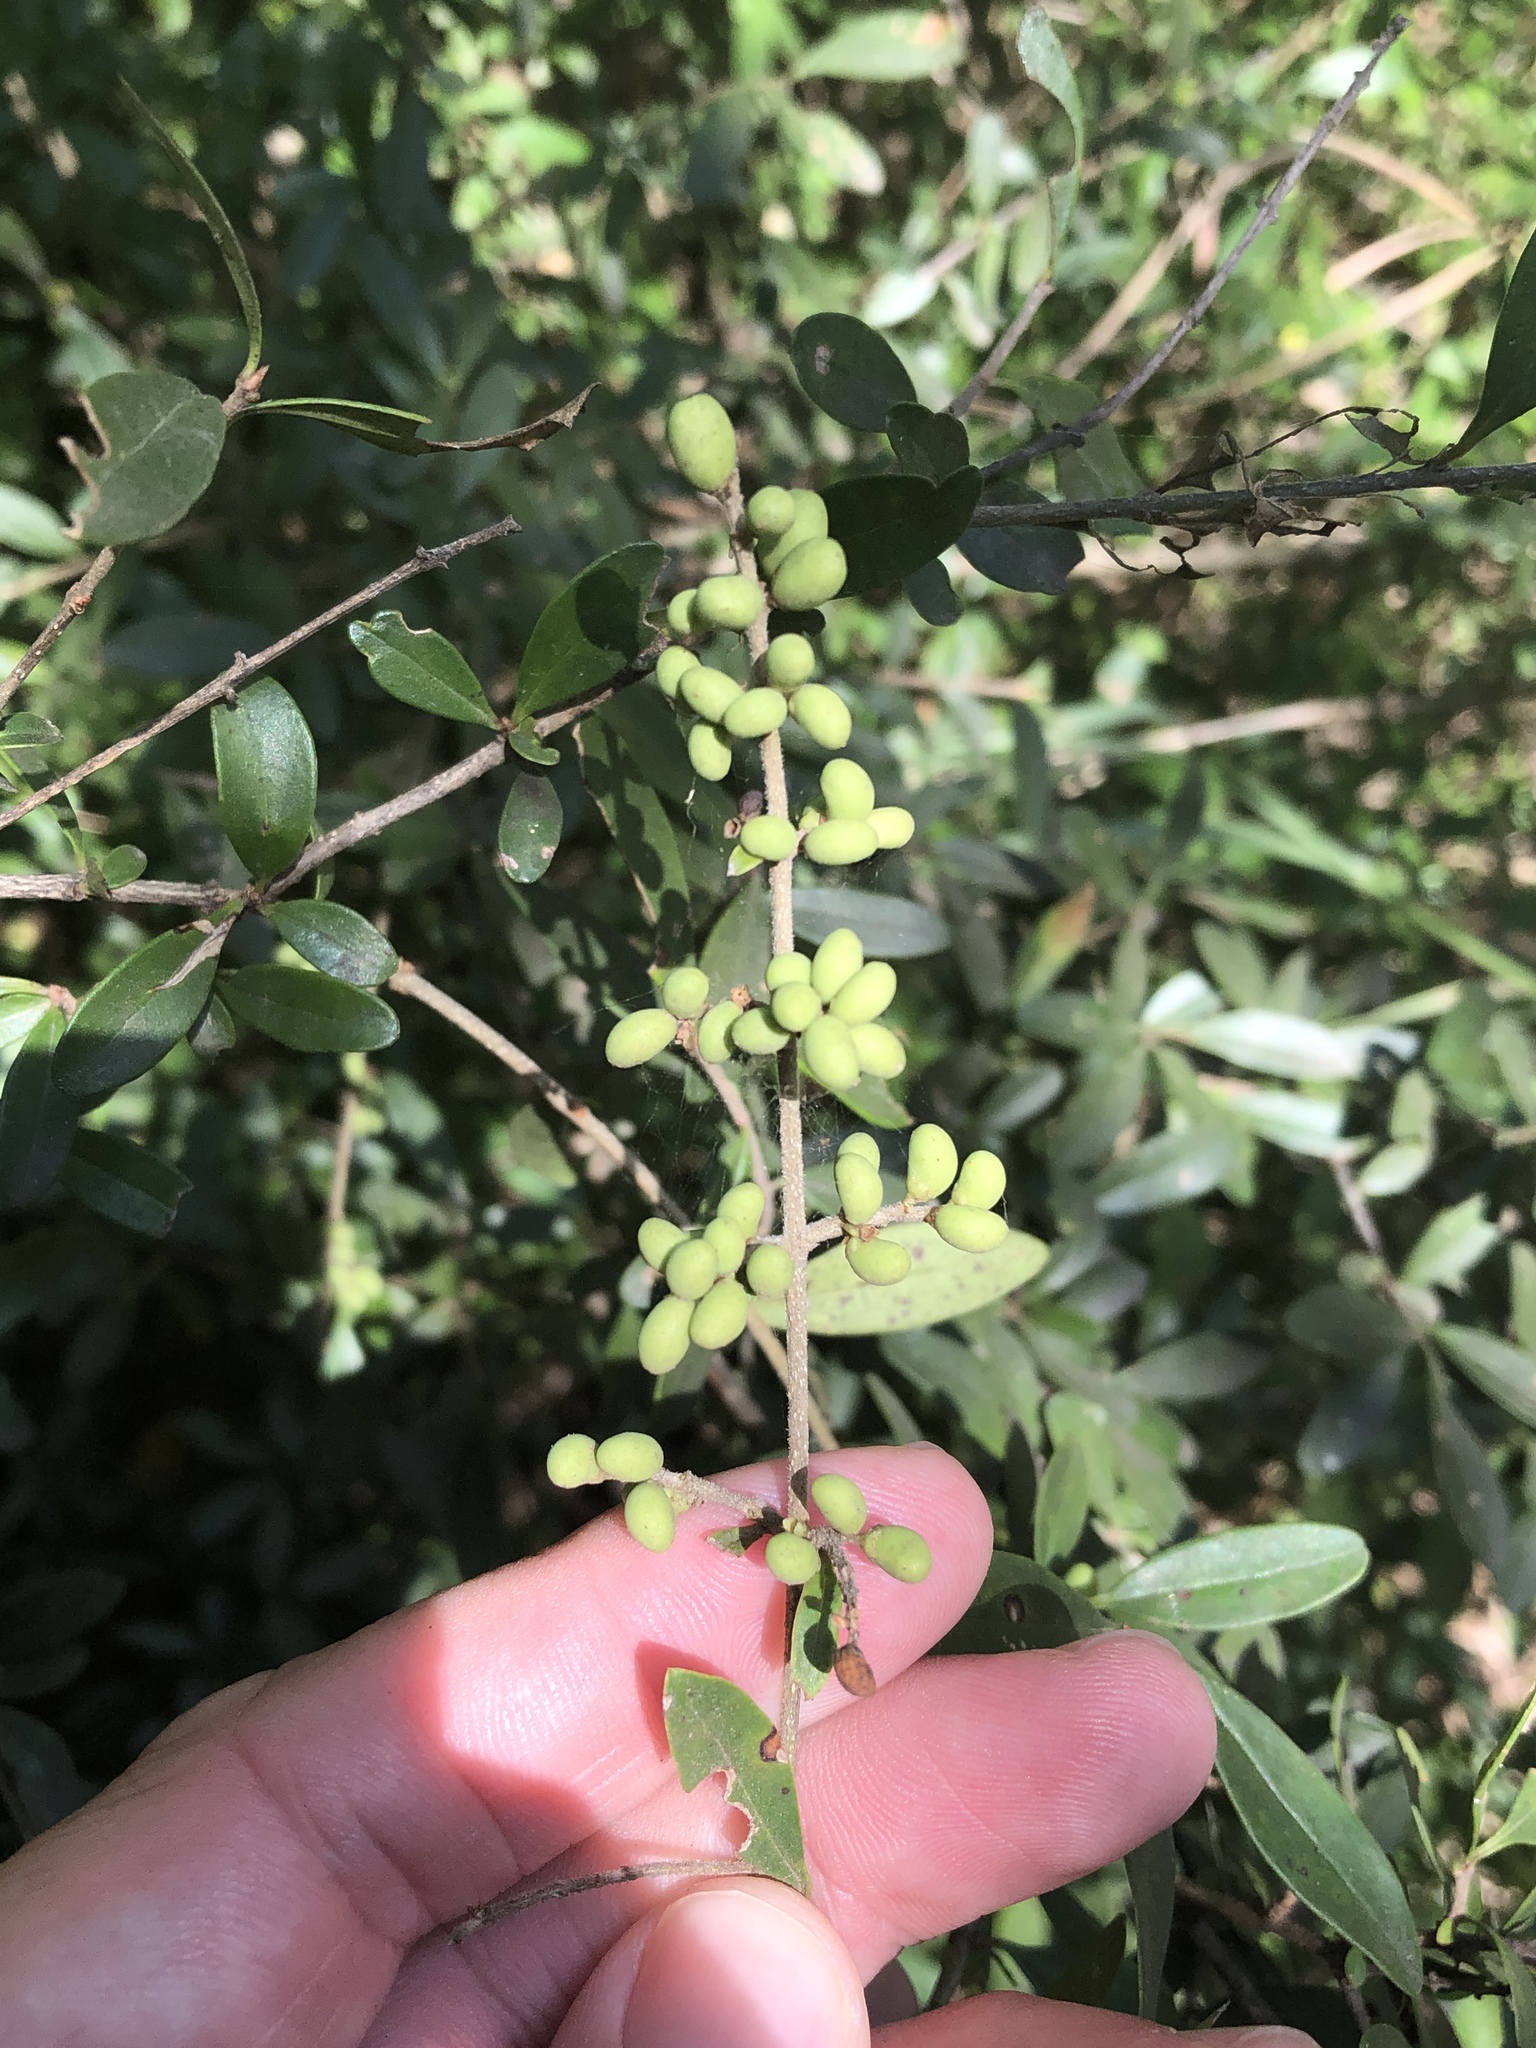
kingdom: Plantae
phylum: Tracheophyta
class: Magnoliopsida
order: Lamiales
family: Oleaceae
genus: Ligustrum
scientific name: Ligustrum quihoui
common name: Waxyleaf privet
